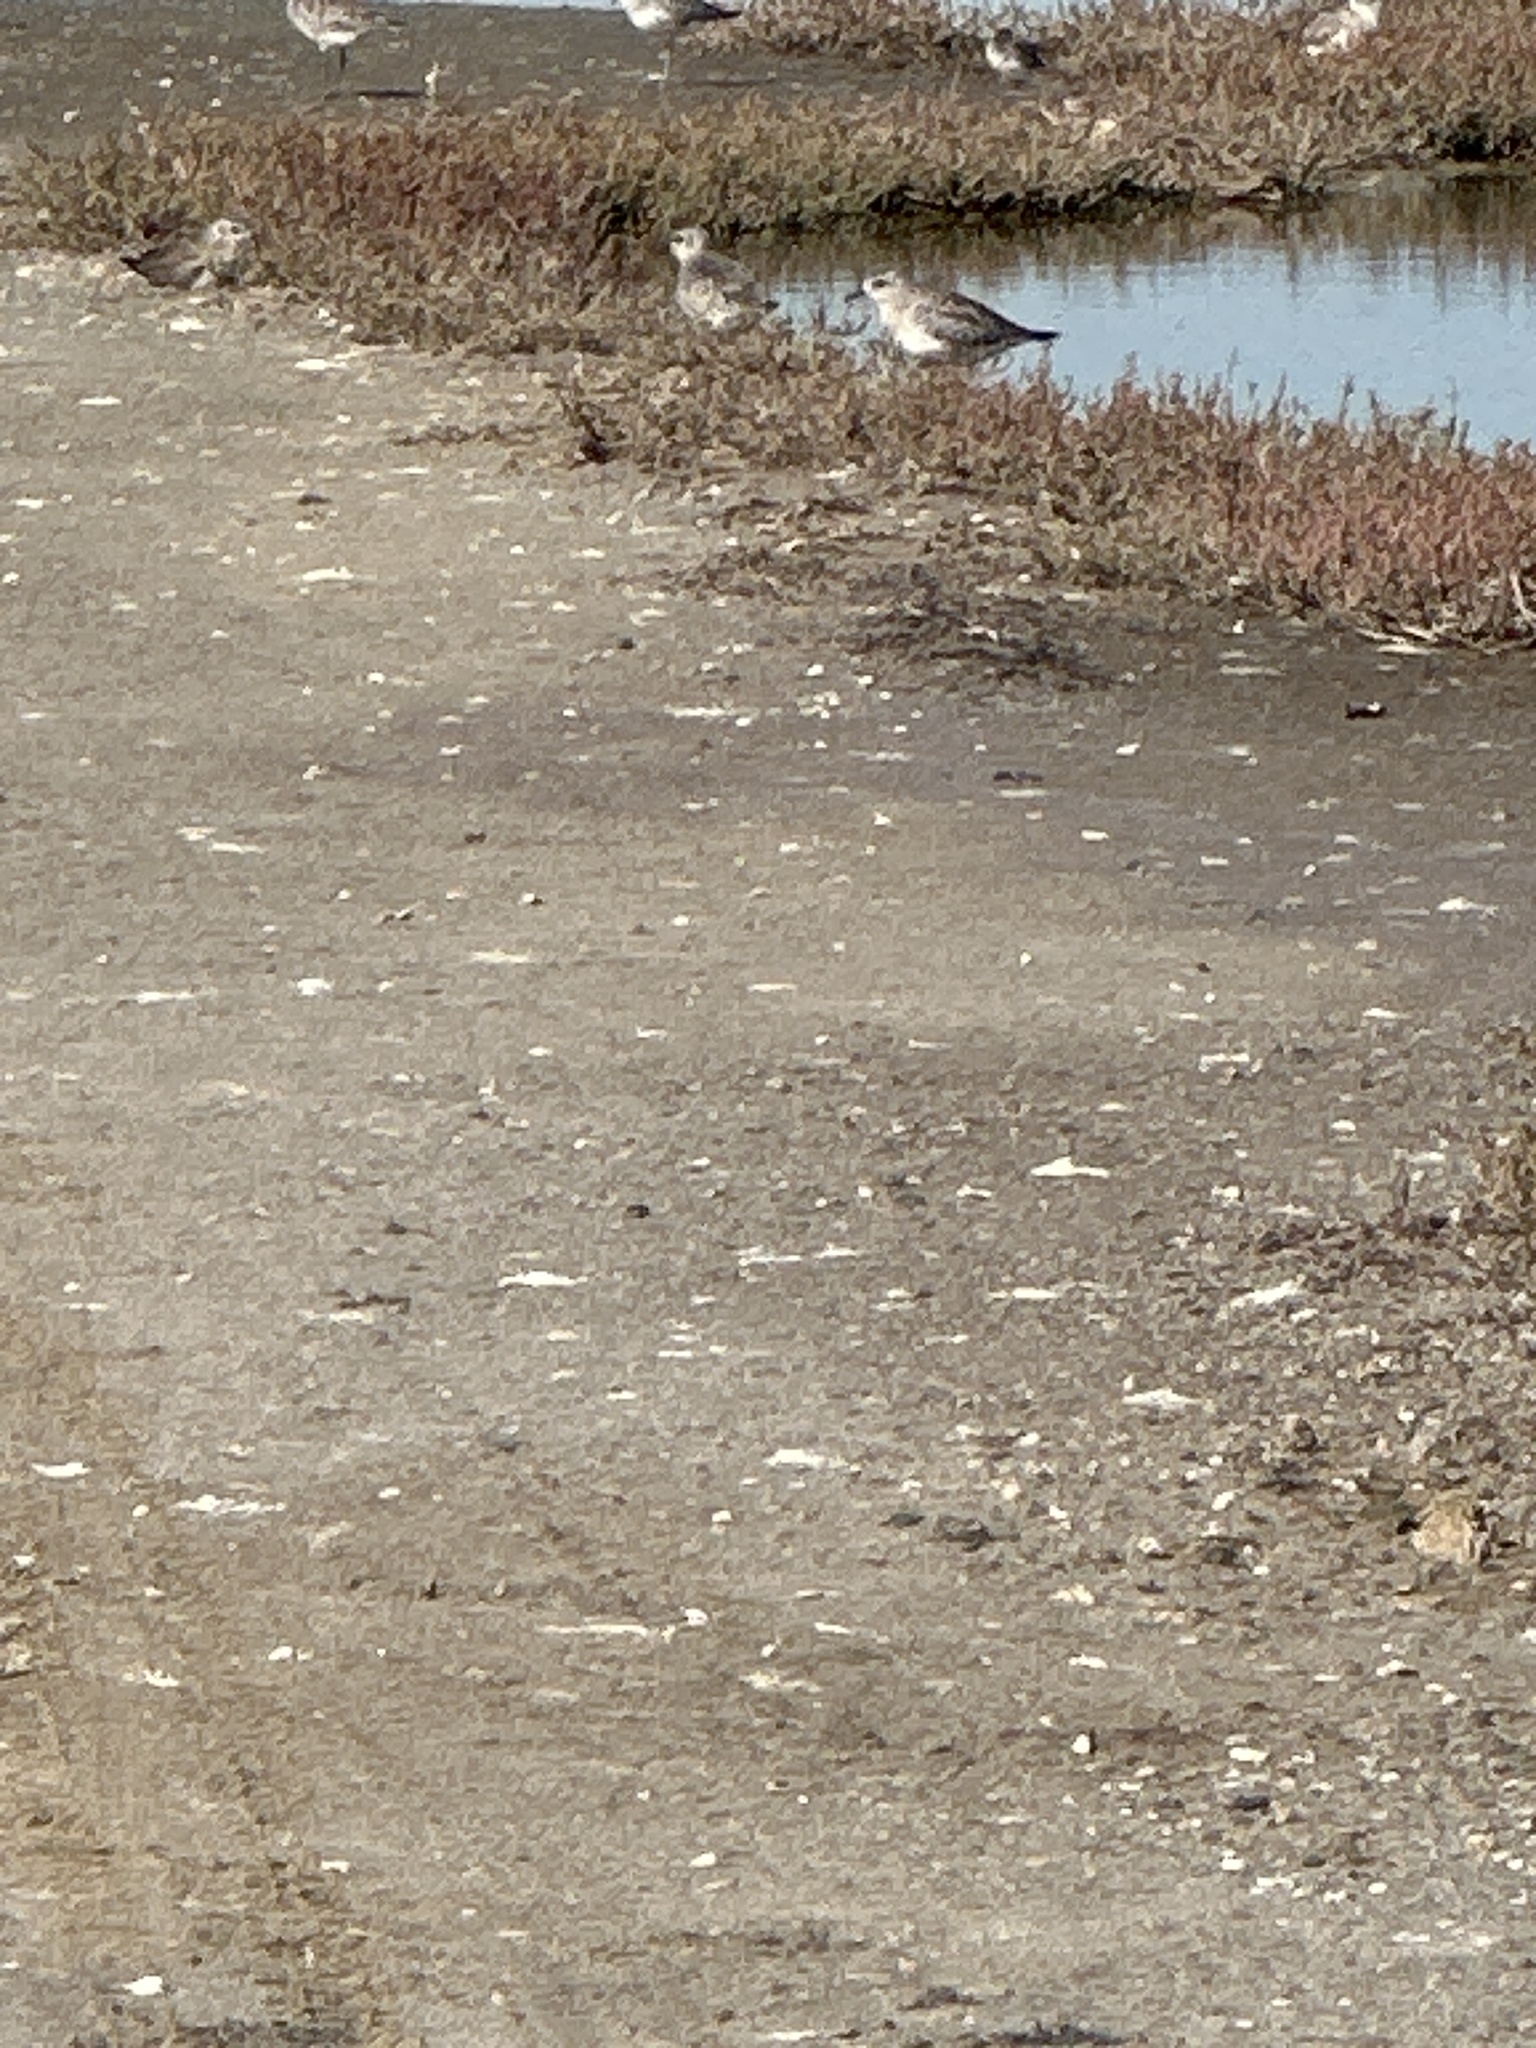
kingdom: Animalia
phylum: Chordata
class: Aves
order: Charadriiformes
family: Charadriidae
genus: Pluvialis
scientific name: Pluvialis squatarola
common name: Grey plover
